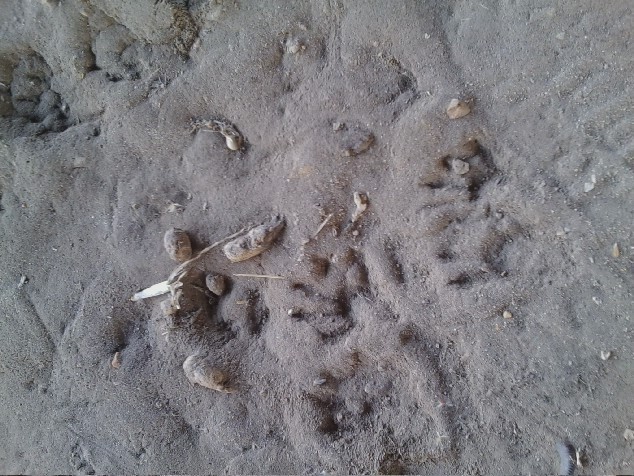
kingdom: Animalia
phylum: Chordata
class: Mammalia
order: Carnivora
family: Procyonidae
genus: Procyon
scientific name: Procyon lotor
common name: Raccoon
